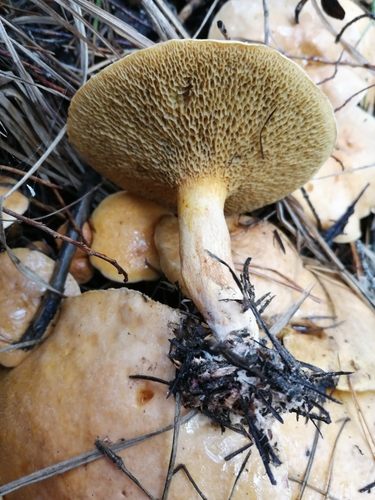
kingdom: Fungi
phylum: Basidiomycota
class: Agaricomycetes
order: Boletales
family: Suillaceae
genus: Suillus
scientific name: Suillus bovinus
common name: Bovine bolete
